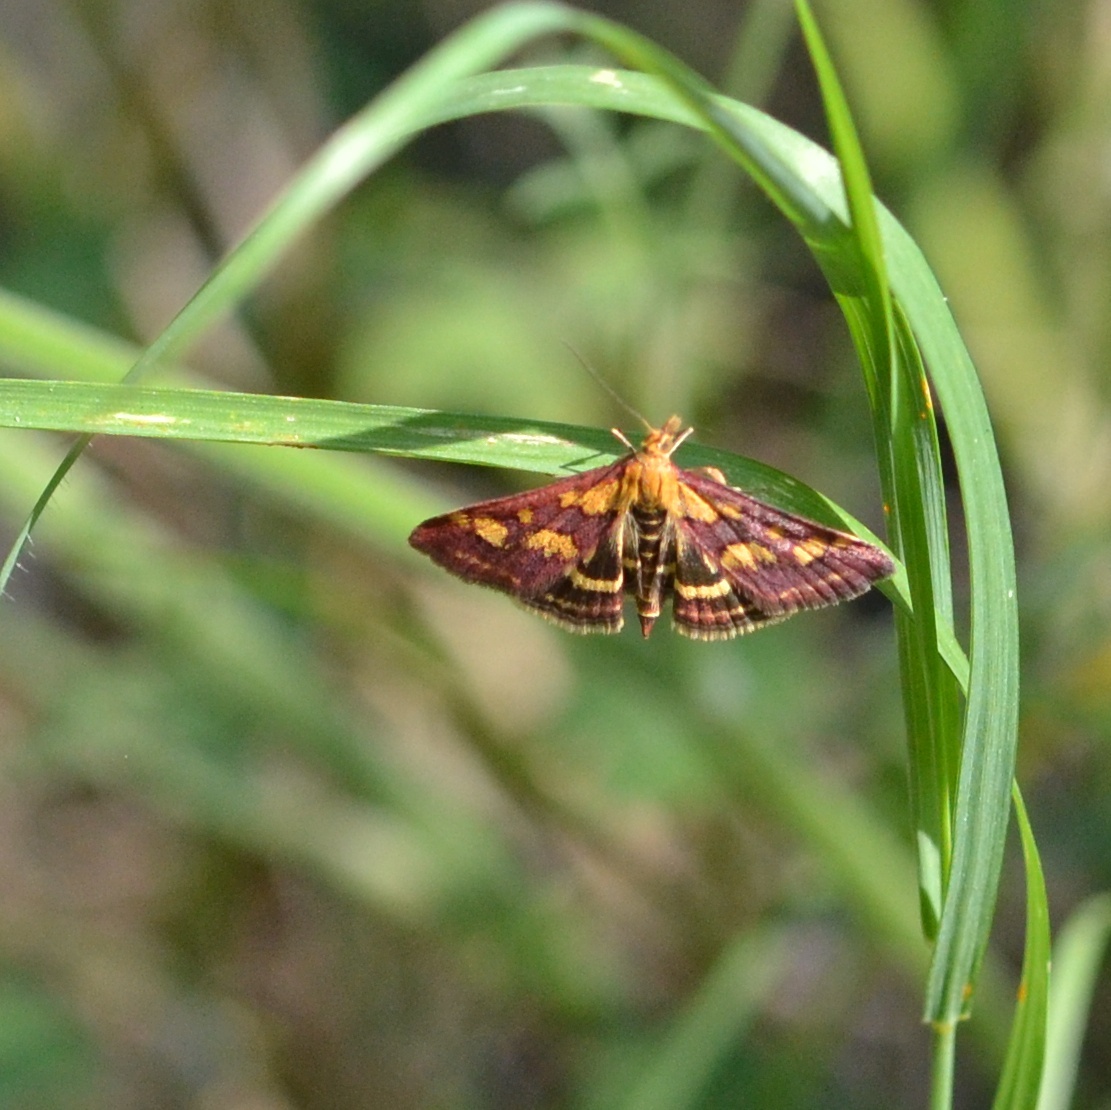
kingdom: Animalia
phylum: Arthropoda
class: Insecta
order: Lepidoptera
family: Crambidae
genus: Pyrausta
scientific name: Pyrausta purpuralis
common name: Common purple & gold
